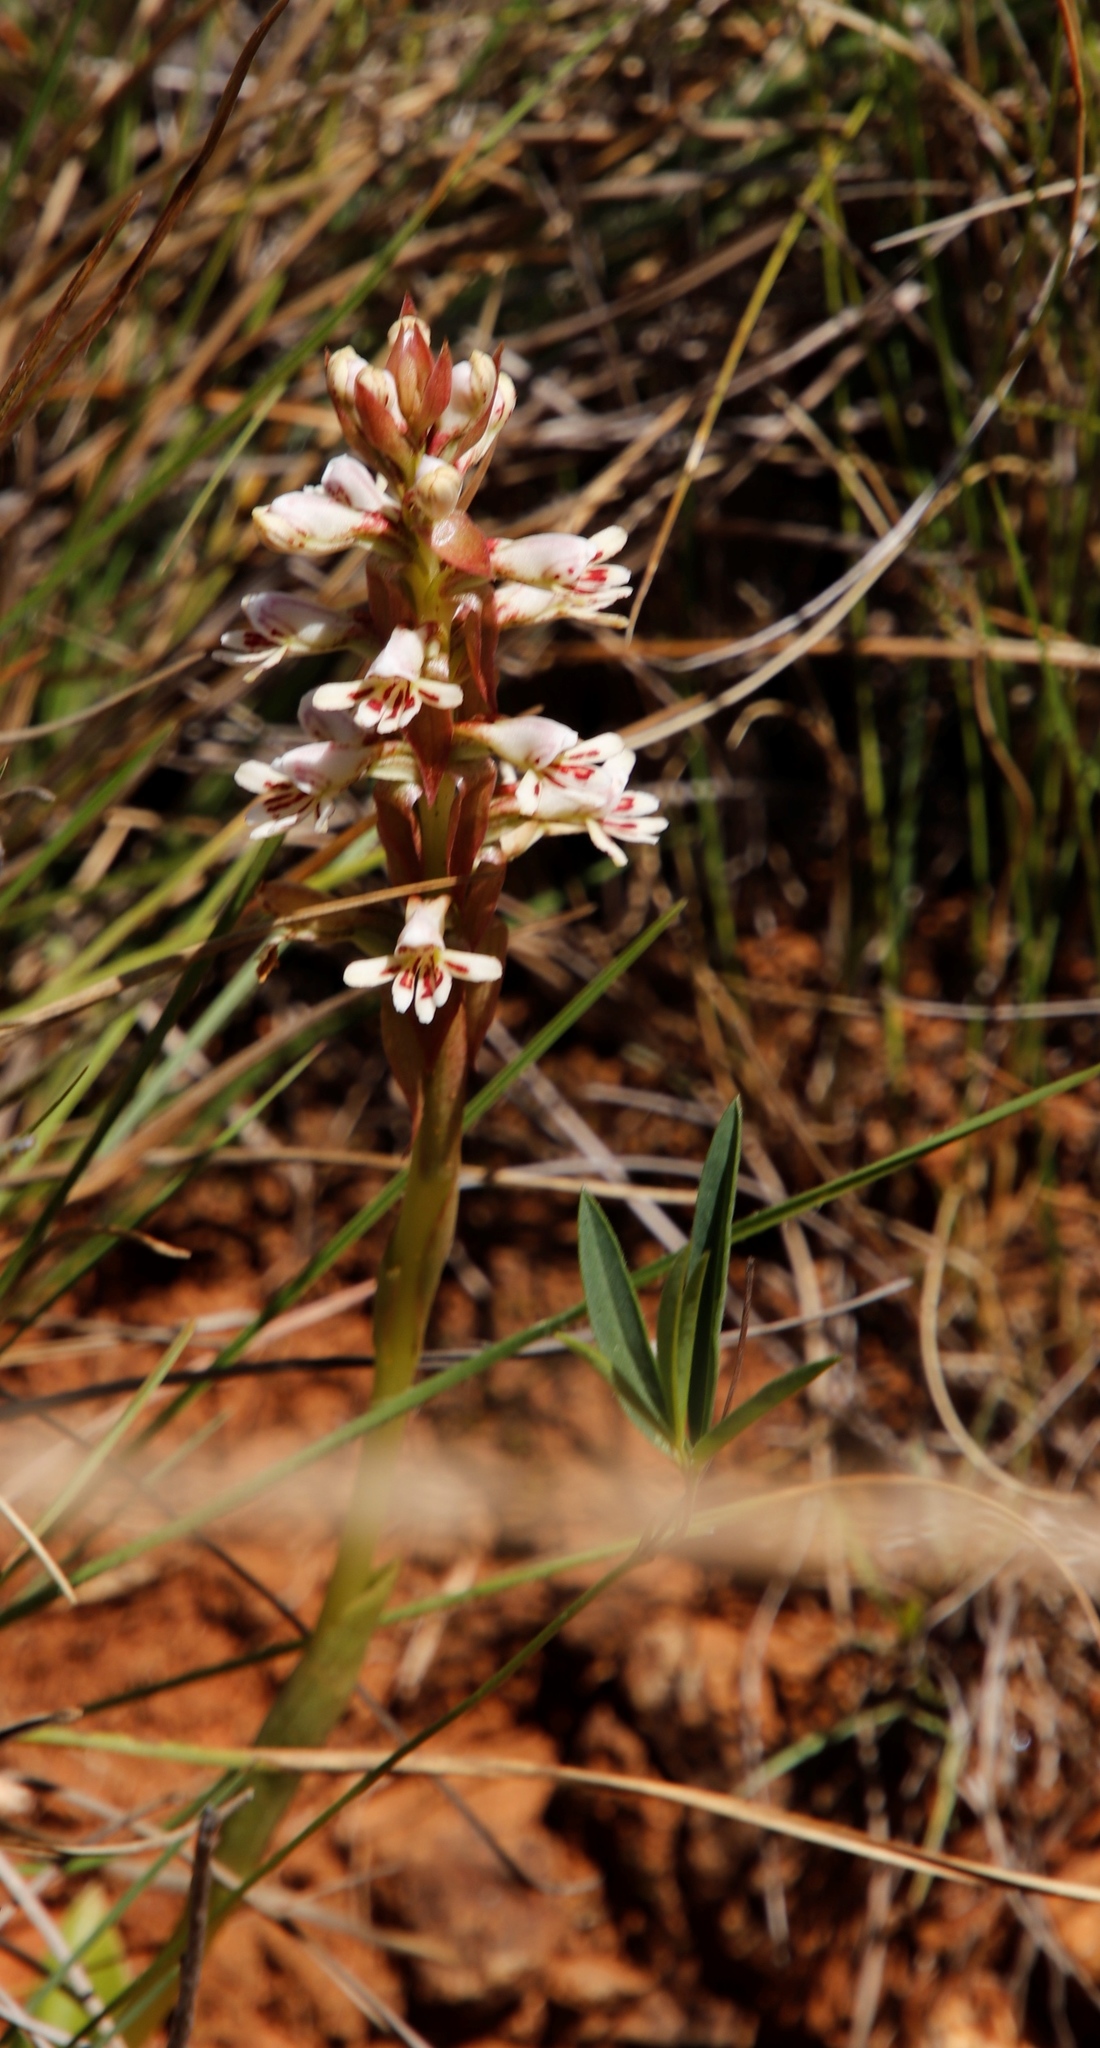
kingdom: Plantae
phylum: Tracheophyta
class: Liliopsida
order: Asparagales
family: Orchidaceae
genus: Satyrium
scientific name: Satyrium cristatum
